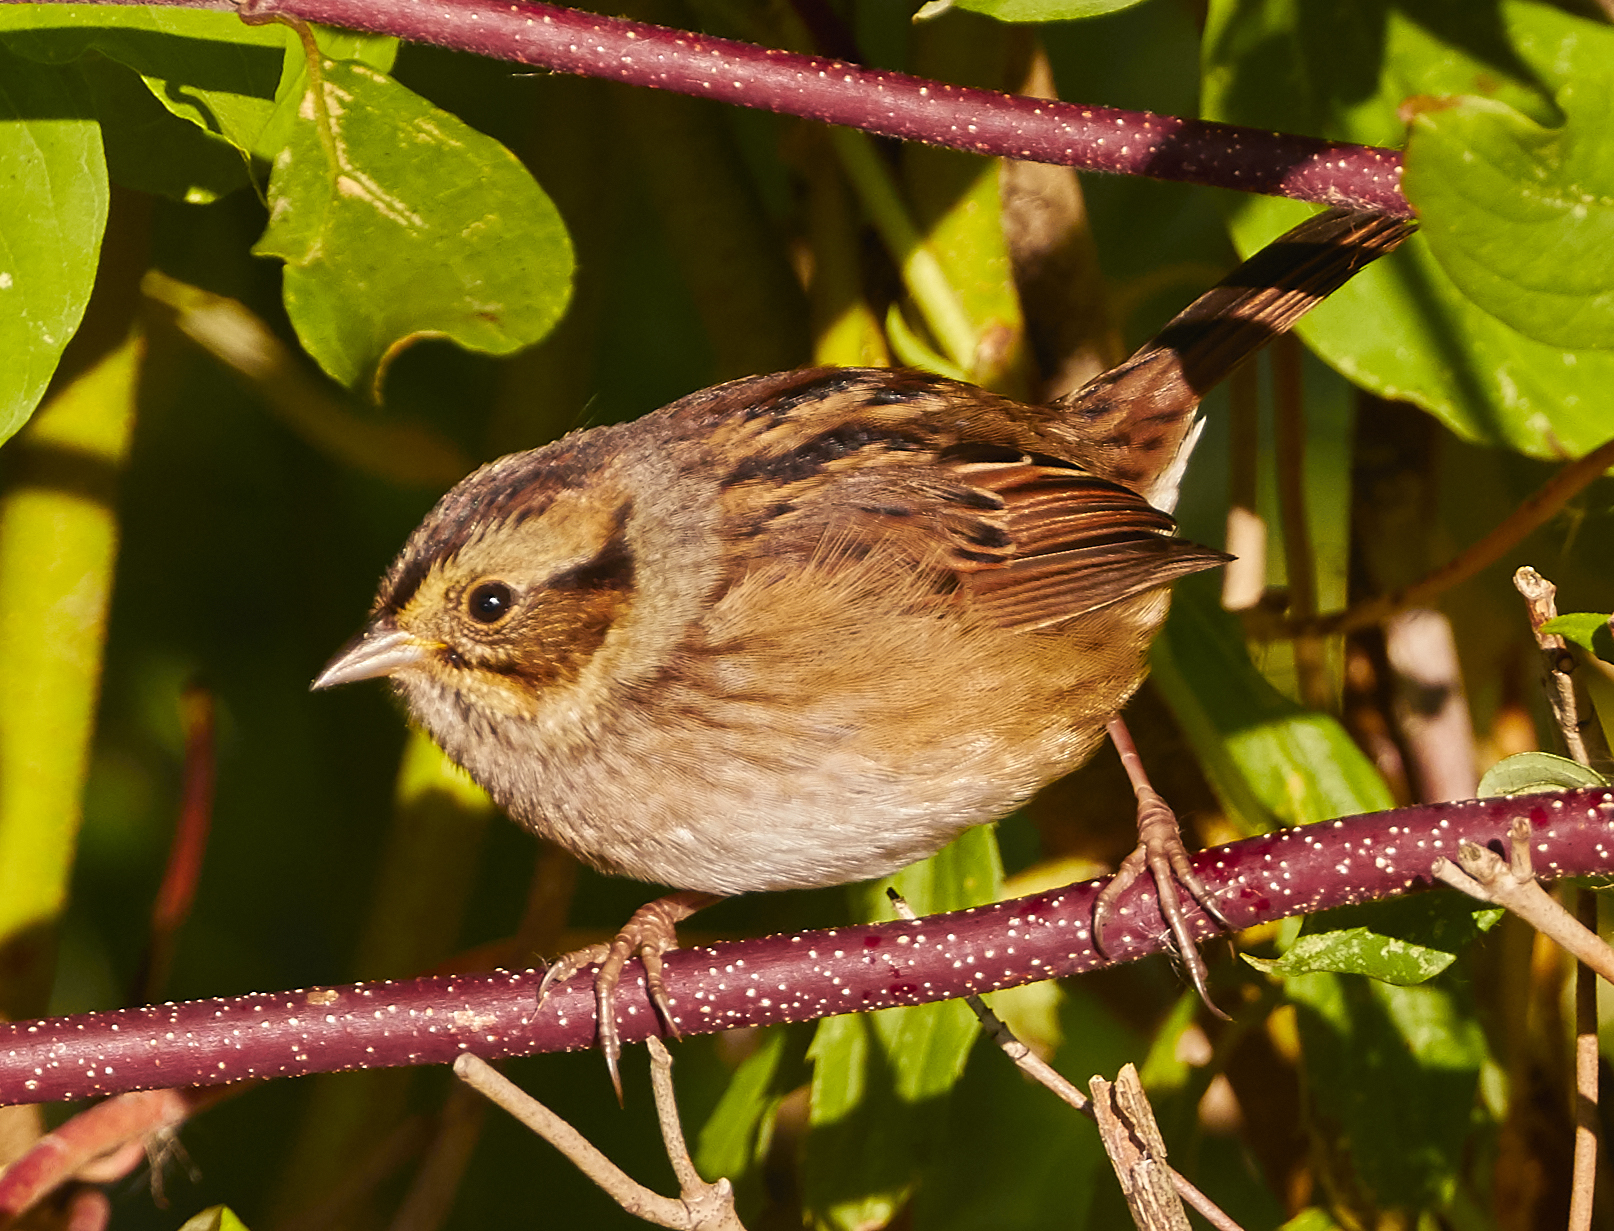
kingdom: Animalia
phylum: Chordata
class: Aves
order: Passeriformes
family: Passerellidae
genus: Melospiza
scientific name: Melospiza georgiana
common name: Swamp sparrow
